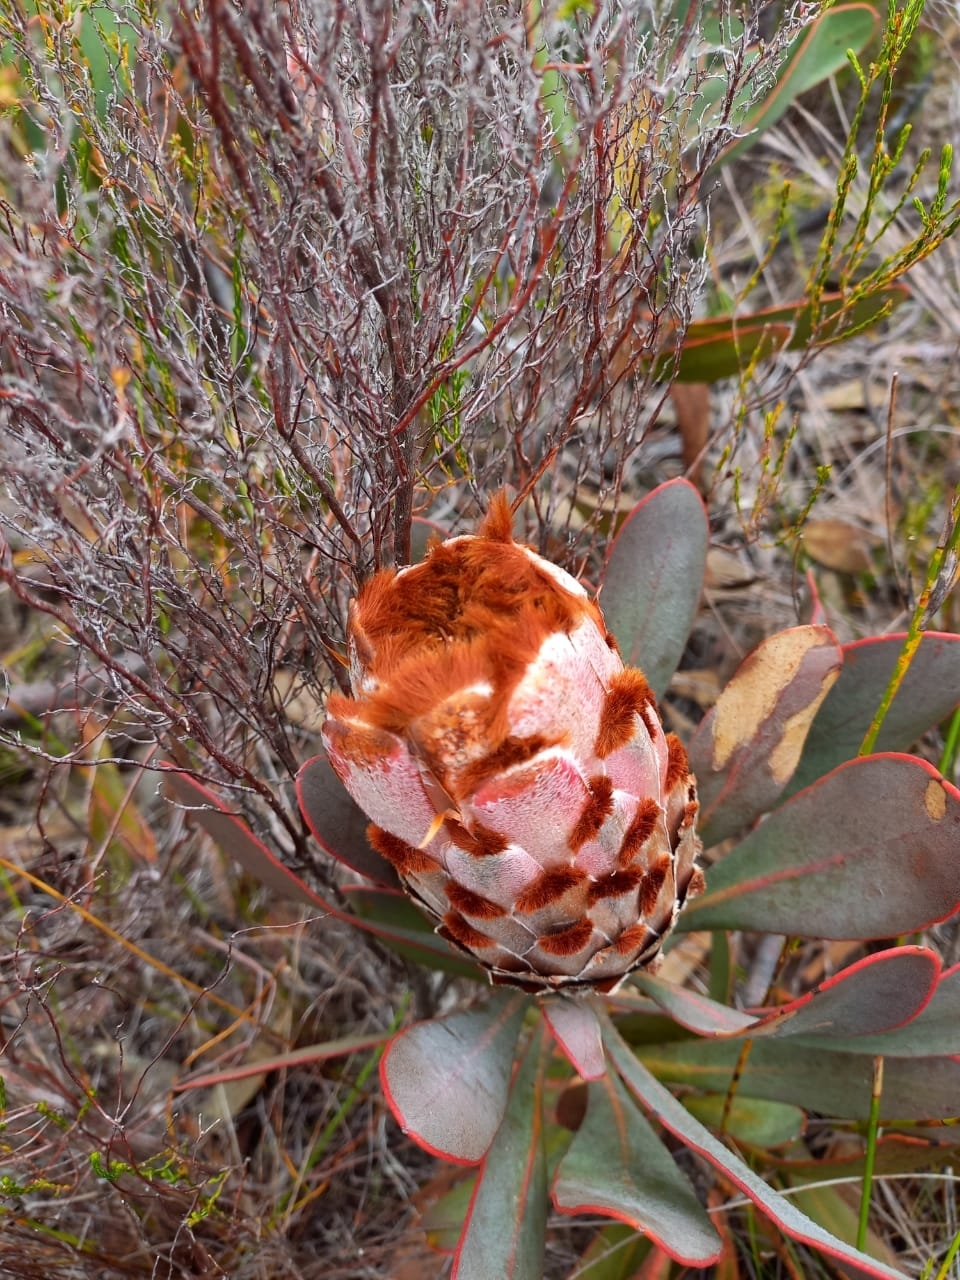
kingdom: Plantae
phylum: Tracheophyta
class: Magnoliopsida
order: Proteales
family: Proteaceae
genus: Protea
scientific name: Protea speciosa
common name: Brown-beard sugarbush
